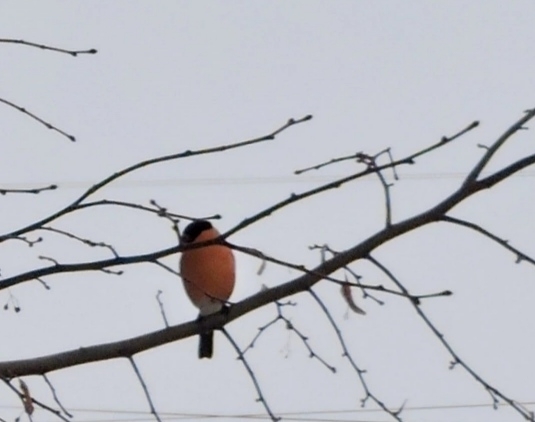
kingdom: Animalia
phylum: Chordata
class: Aves
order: Passeriformes
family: Fringillidae
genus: Pyrrhula
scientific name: Pyrrhula pyrrhula
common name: Eurasian bullfinch
